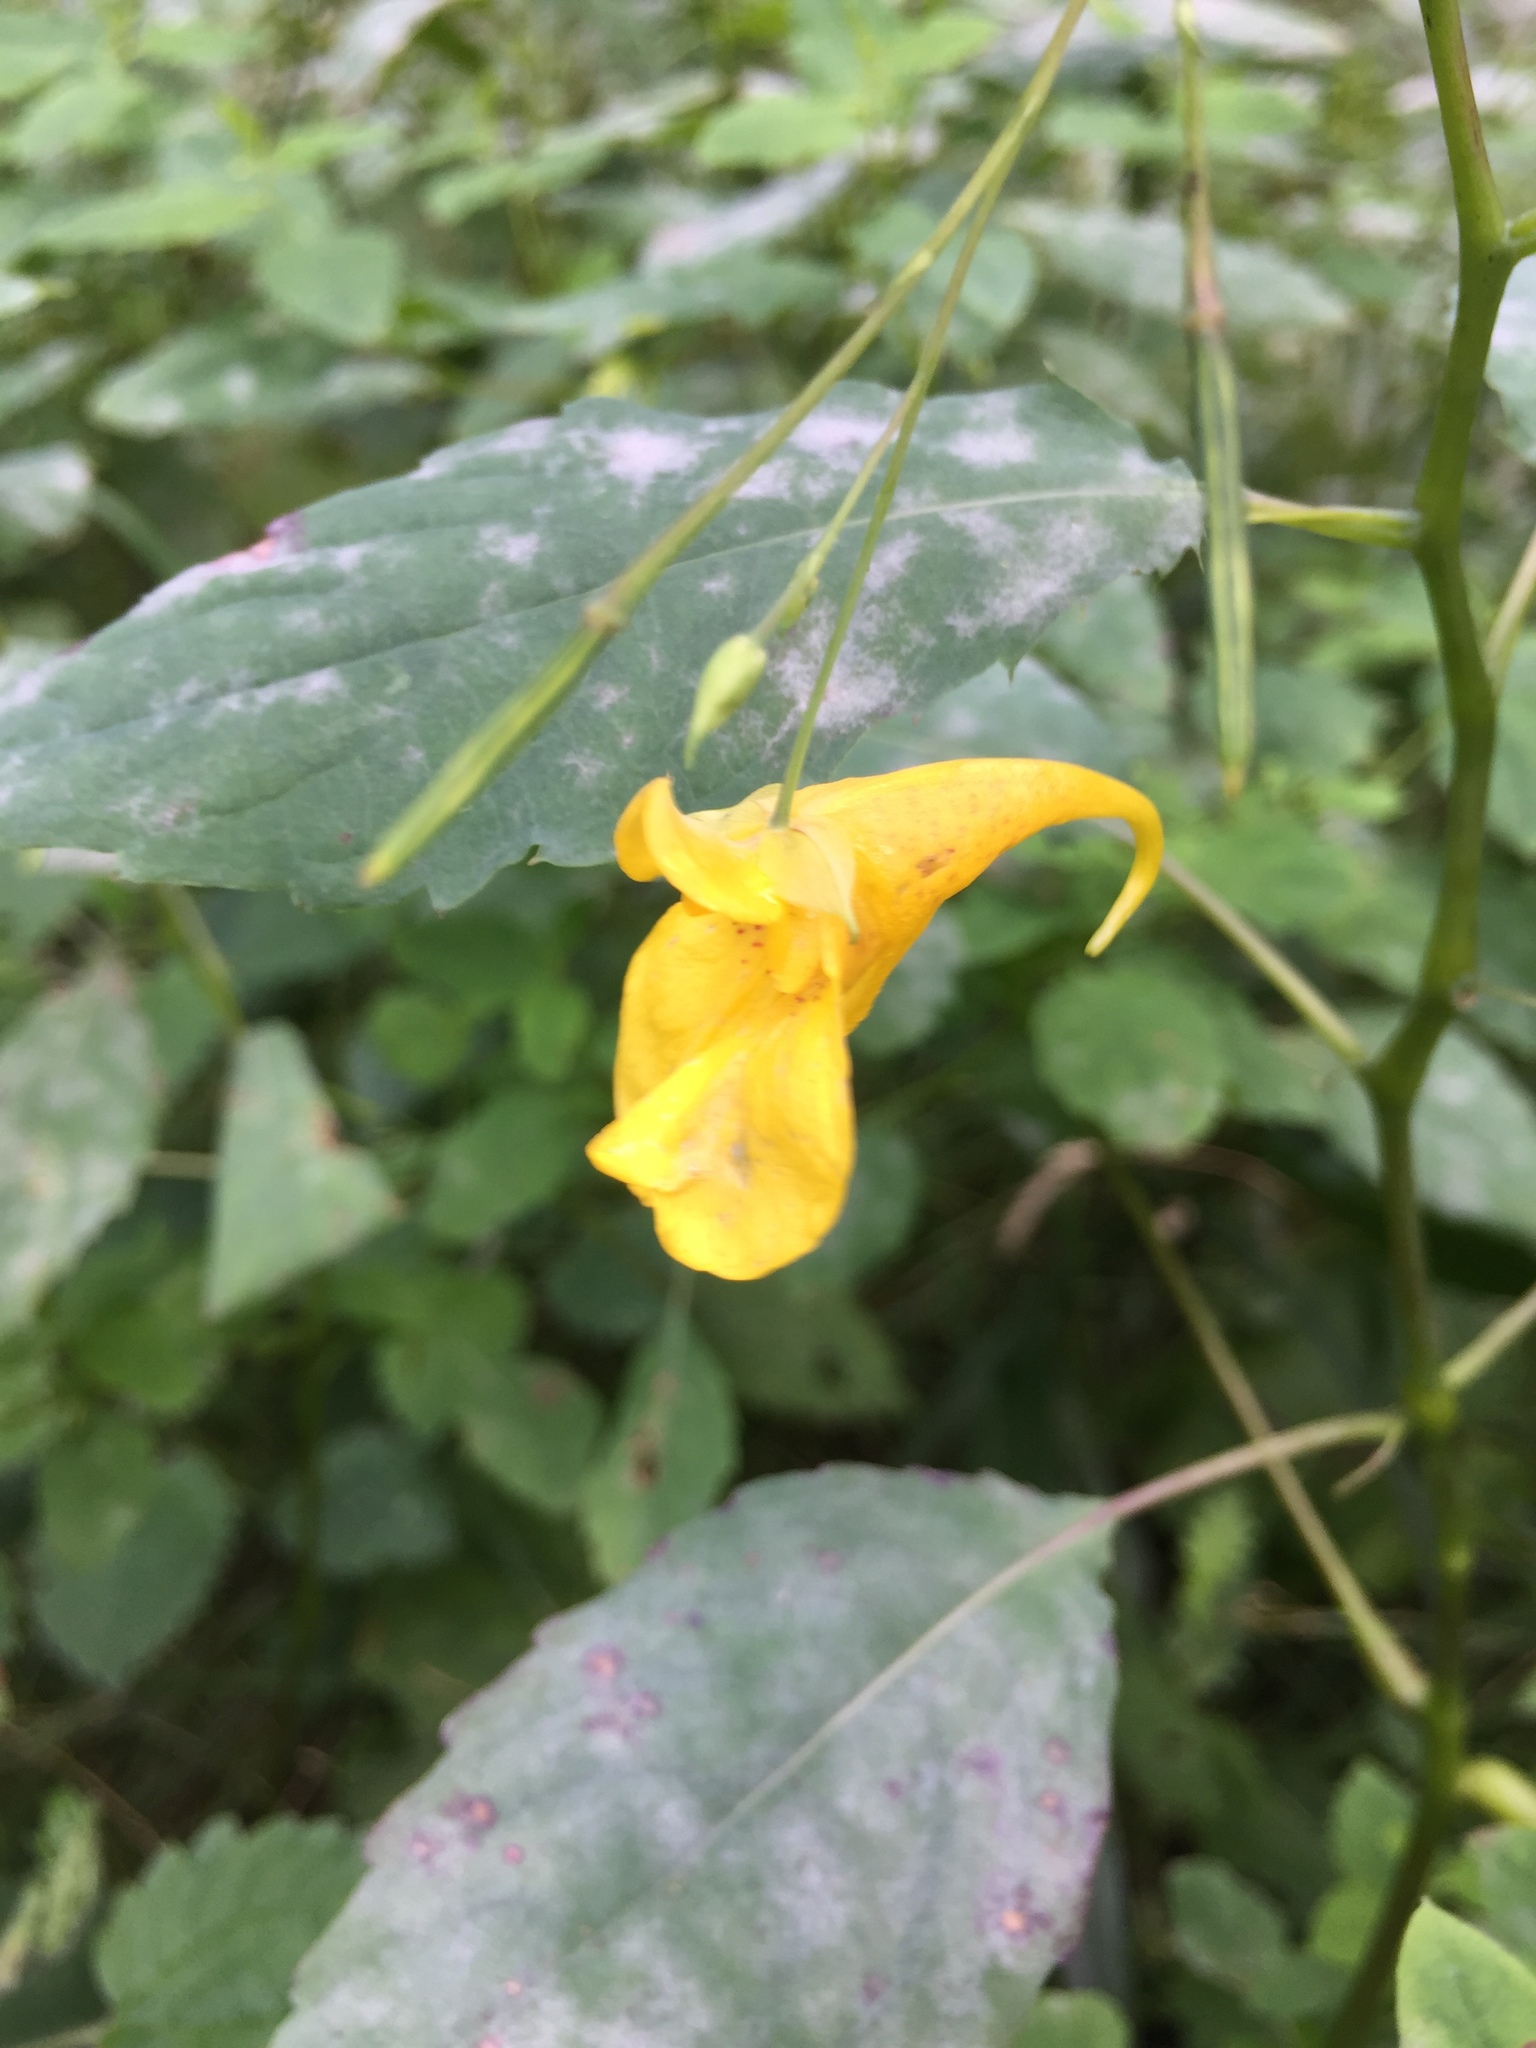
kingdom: Plantae
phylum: Tracheophyta
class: Magnoliopsida
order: Ericales
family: Balsaminaceae
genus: Impatiens
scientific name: Impatiens noli-tangere
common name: Touch-me-not balsam
